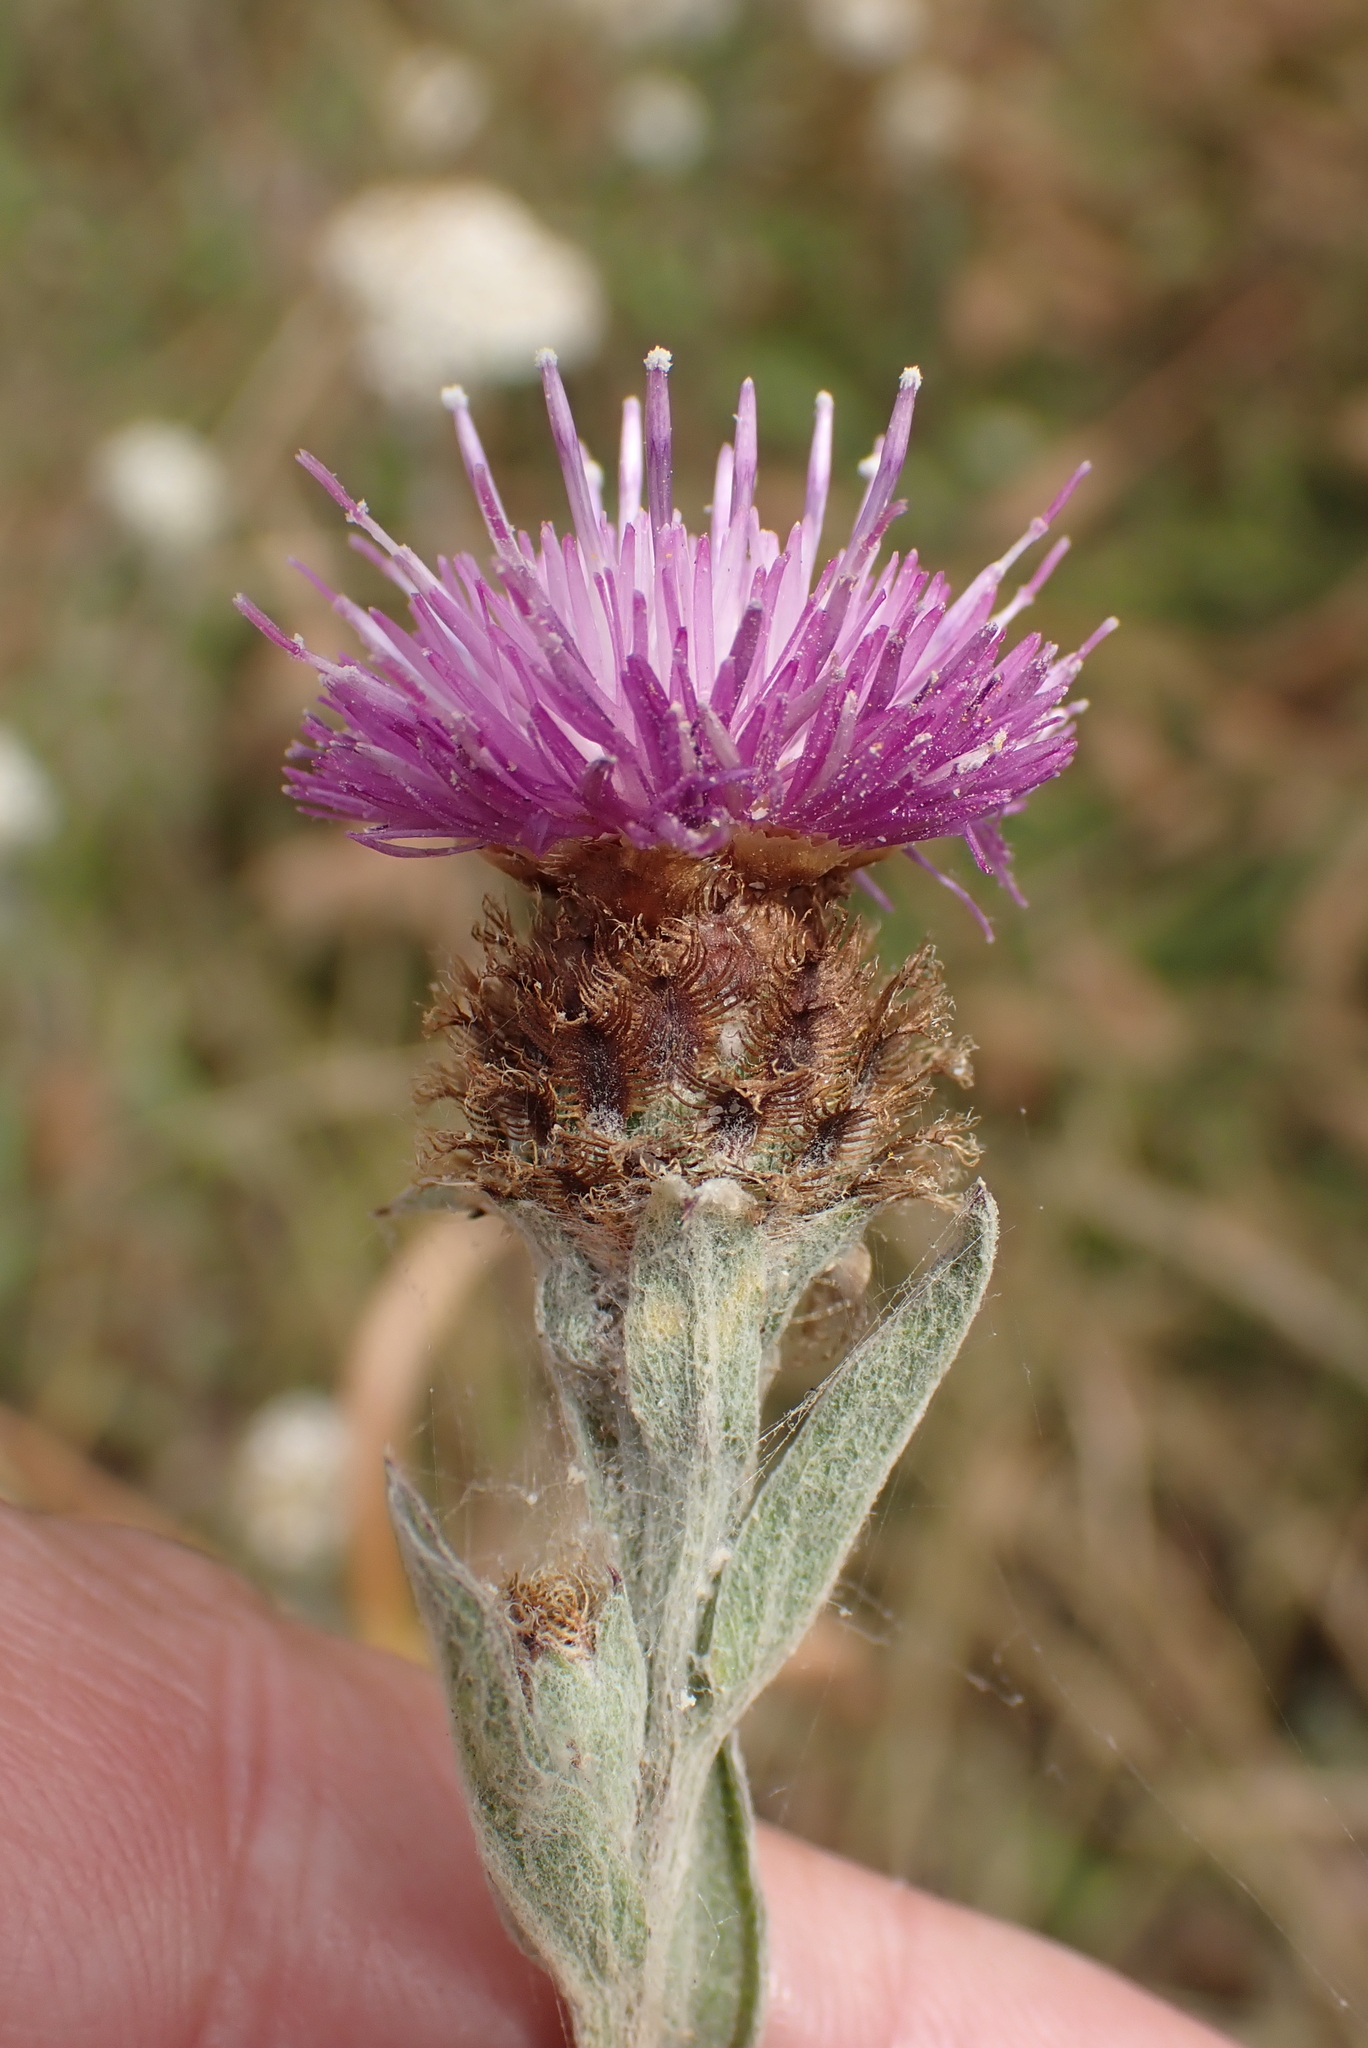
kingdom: Plantae
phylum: Tracheophyta
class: Magnoliopsida
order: Asterales
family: Asteraceae
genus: Centaurea
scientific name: Centaurea nigra
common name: Lesser knapweed
